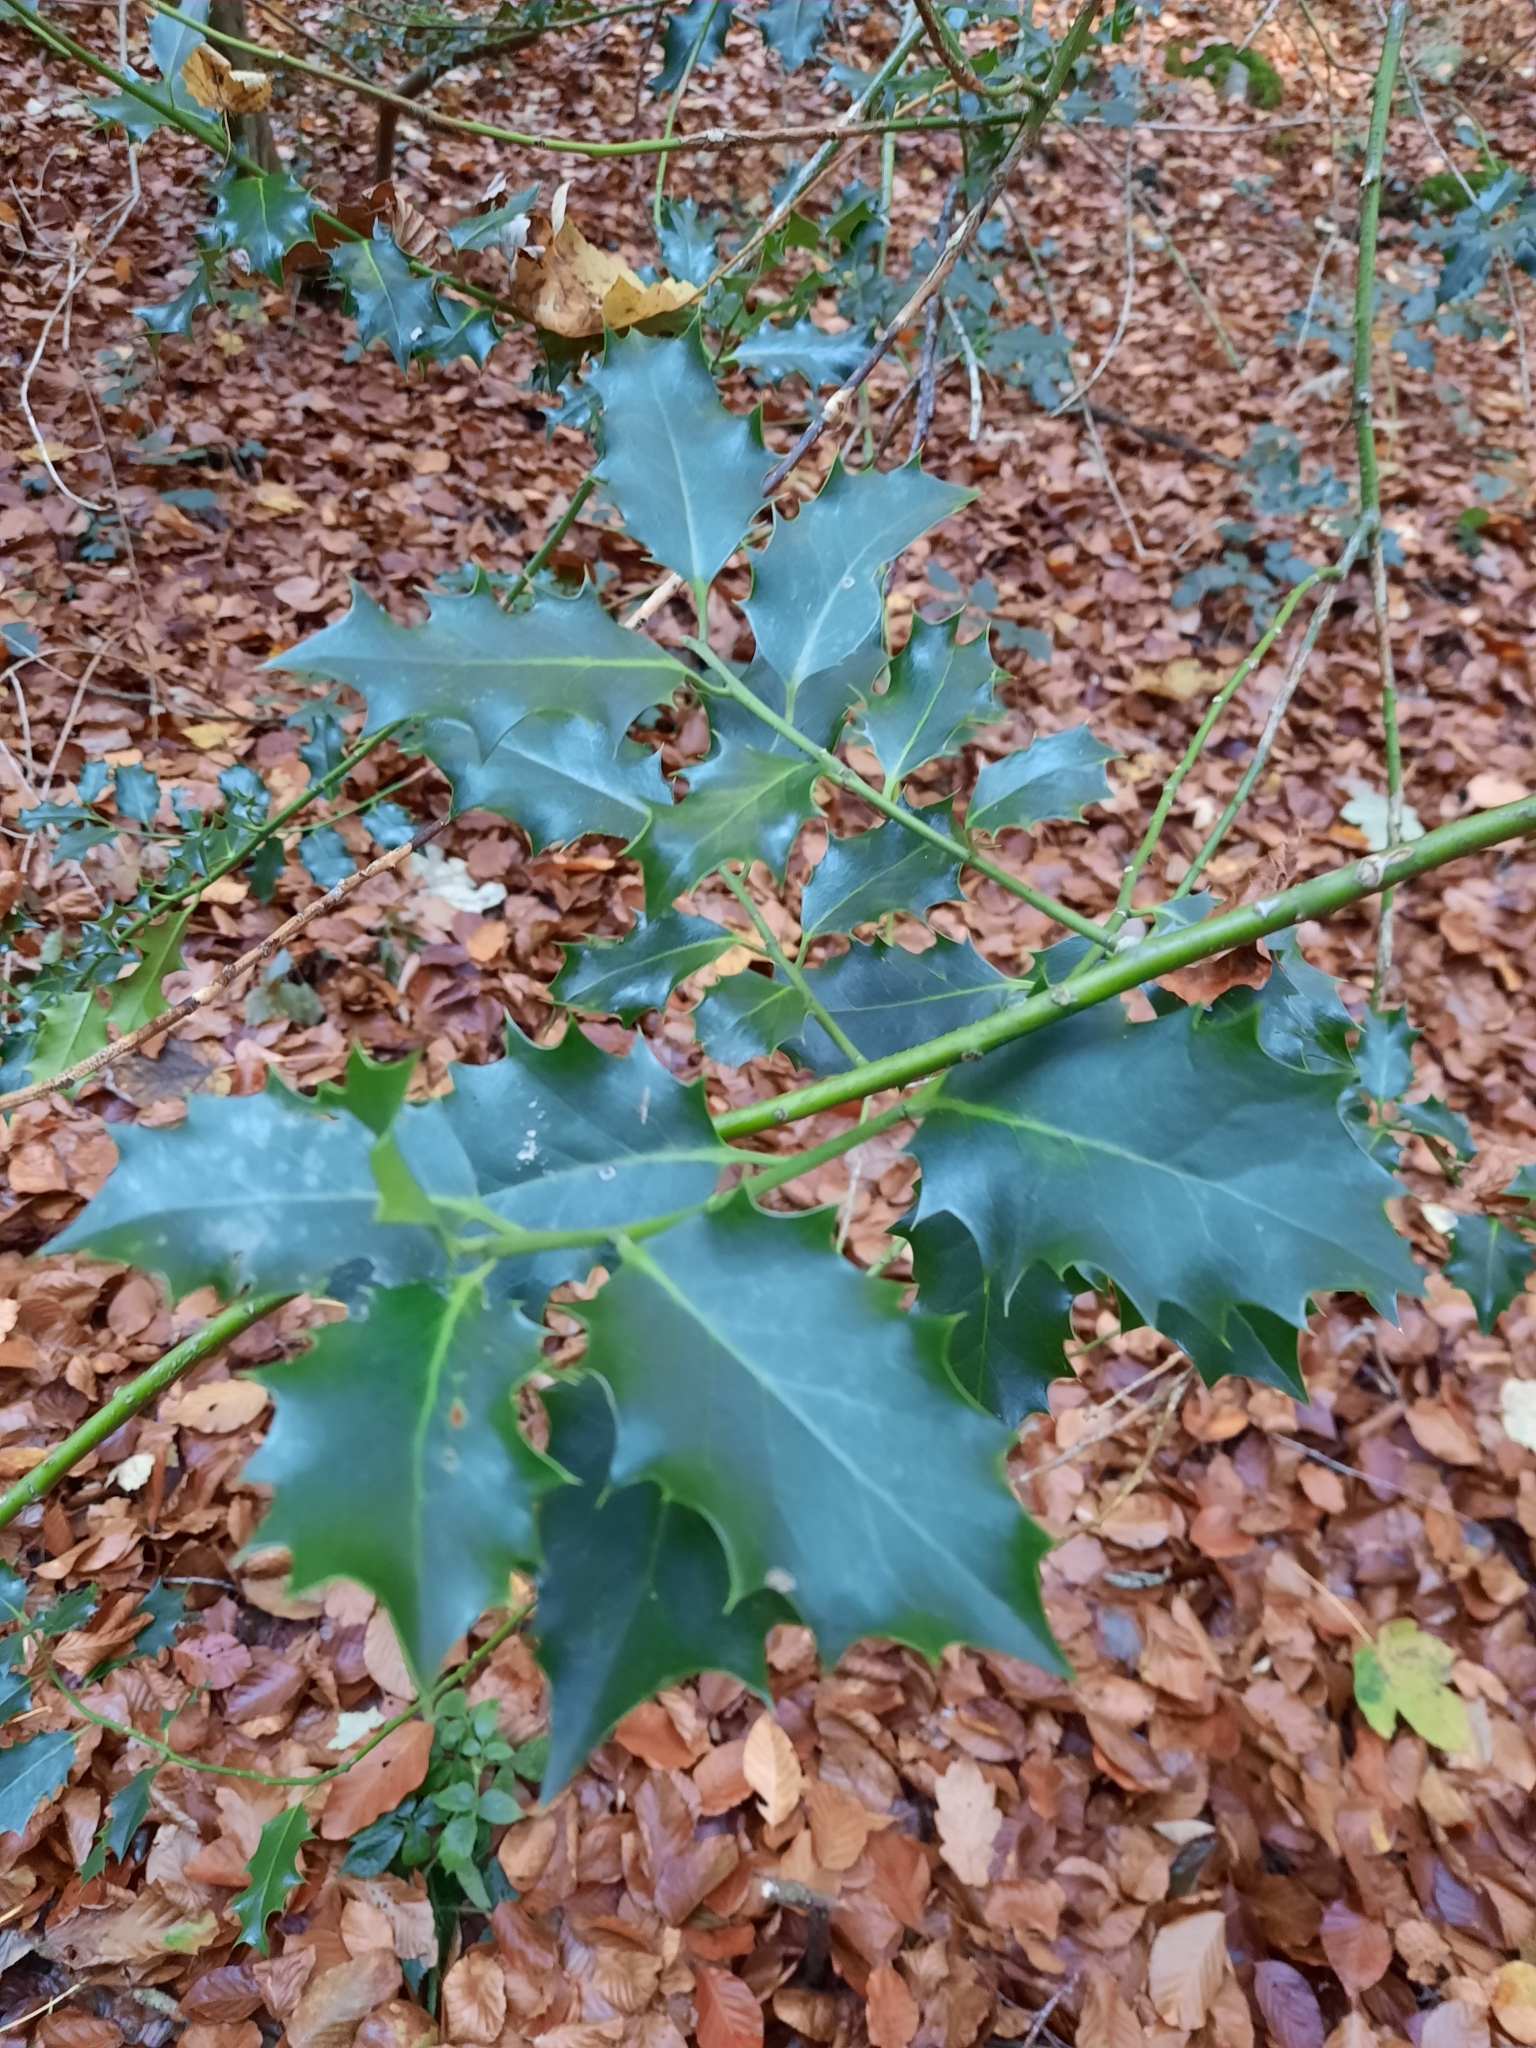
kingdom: Plantae
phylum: Tracheophyta
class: Magnoliopsida
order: Aquifoliales
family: Aquifoliaceae
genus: Ilex
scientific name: Ilex aquifolium
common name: English holly
